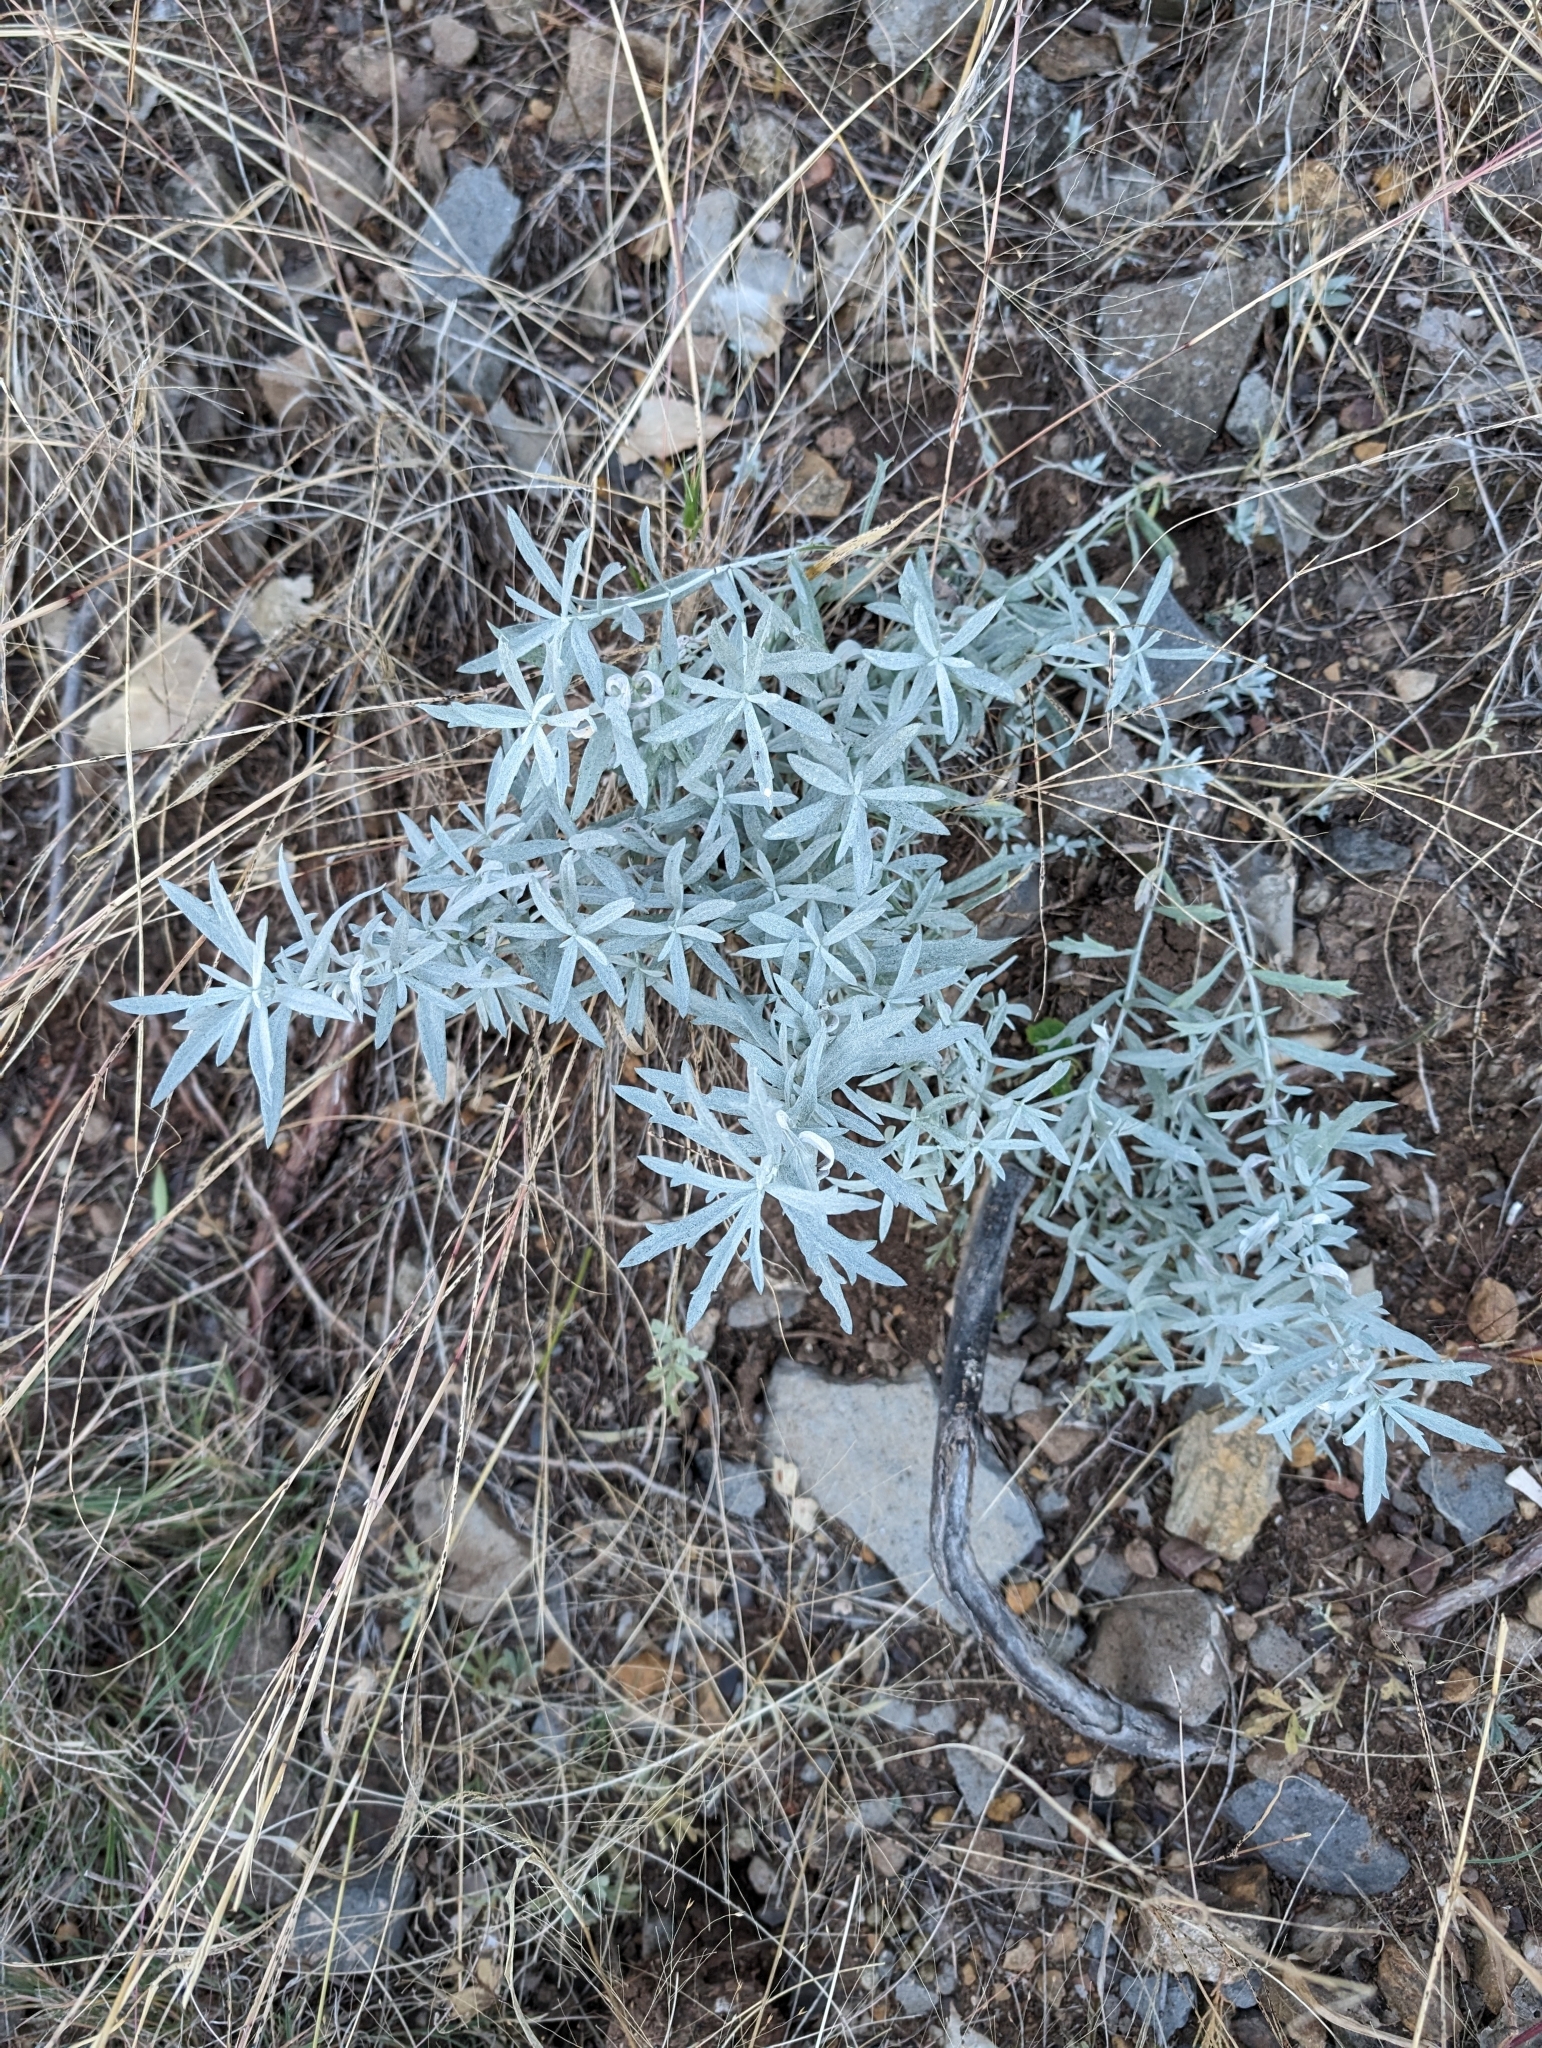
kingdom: Plantae
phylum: Tracheophyta
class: Magnoliopsida
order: Asterales
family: Asteraceae
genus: Artemisia
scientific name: Artemisia ludoviciana
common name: Western mugwort
